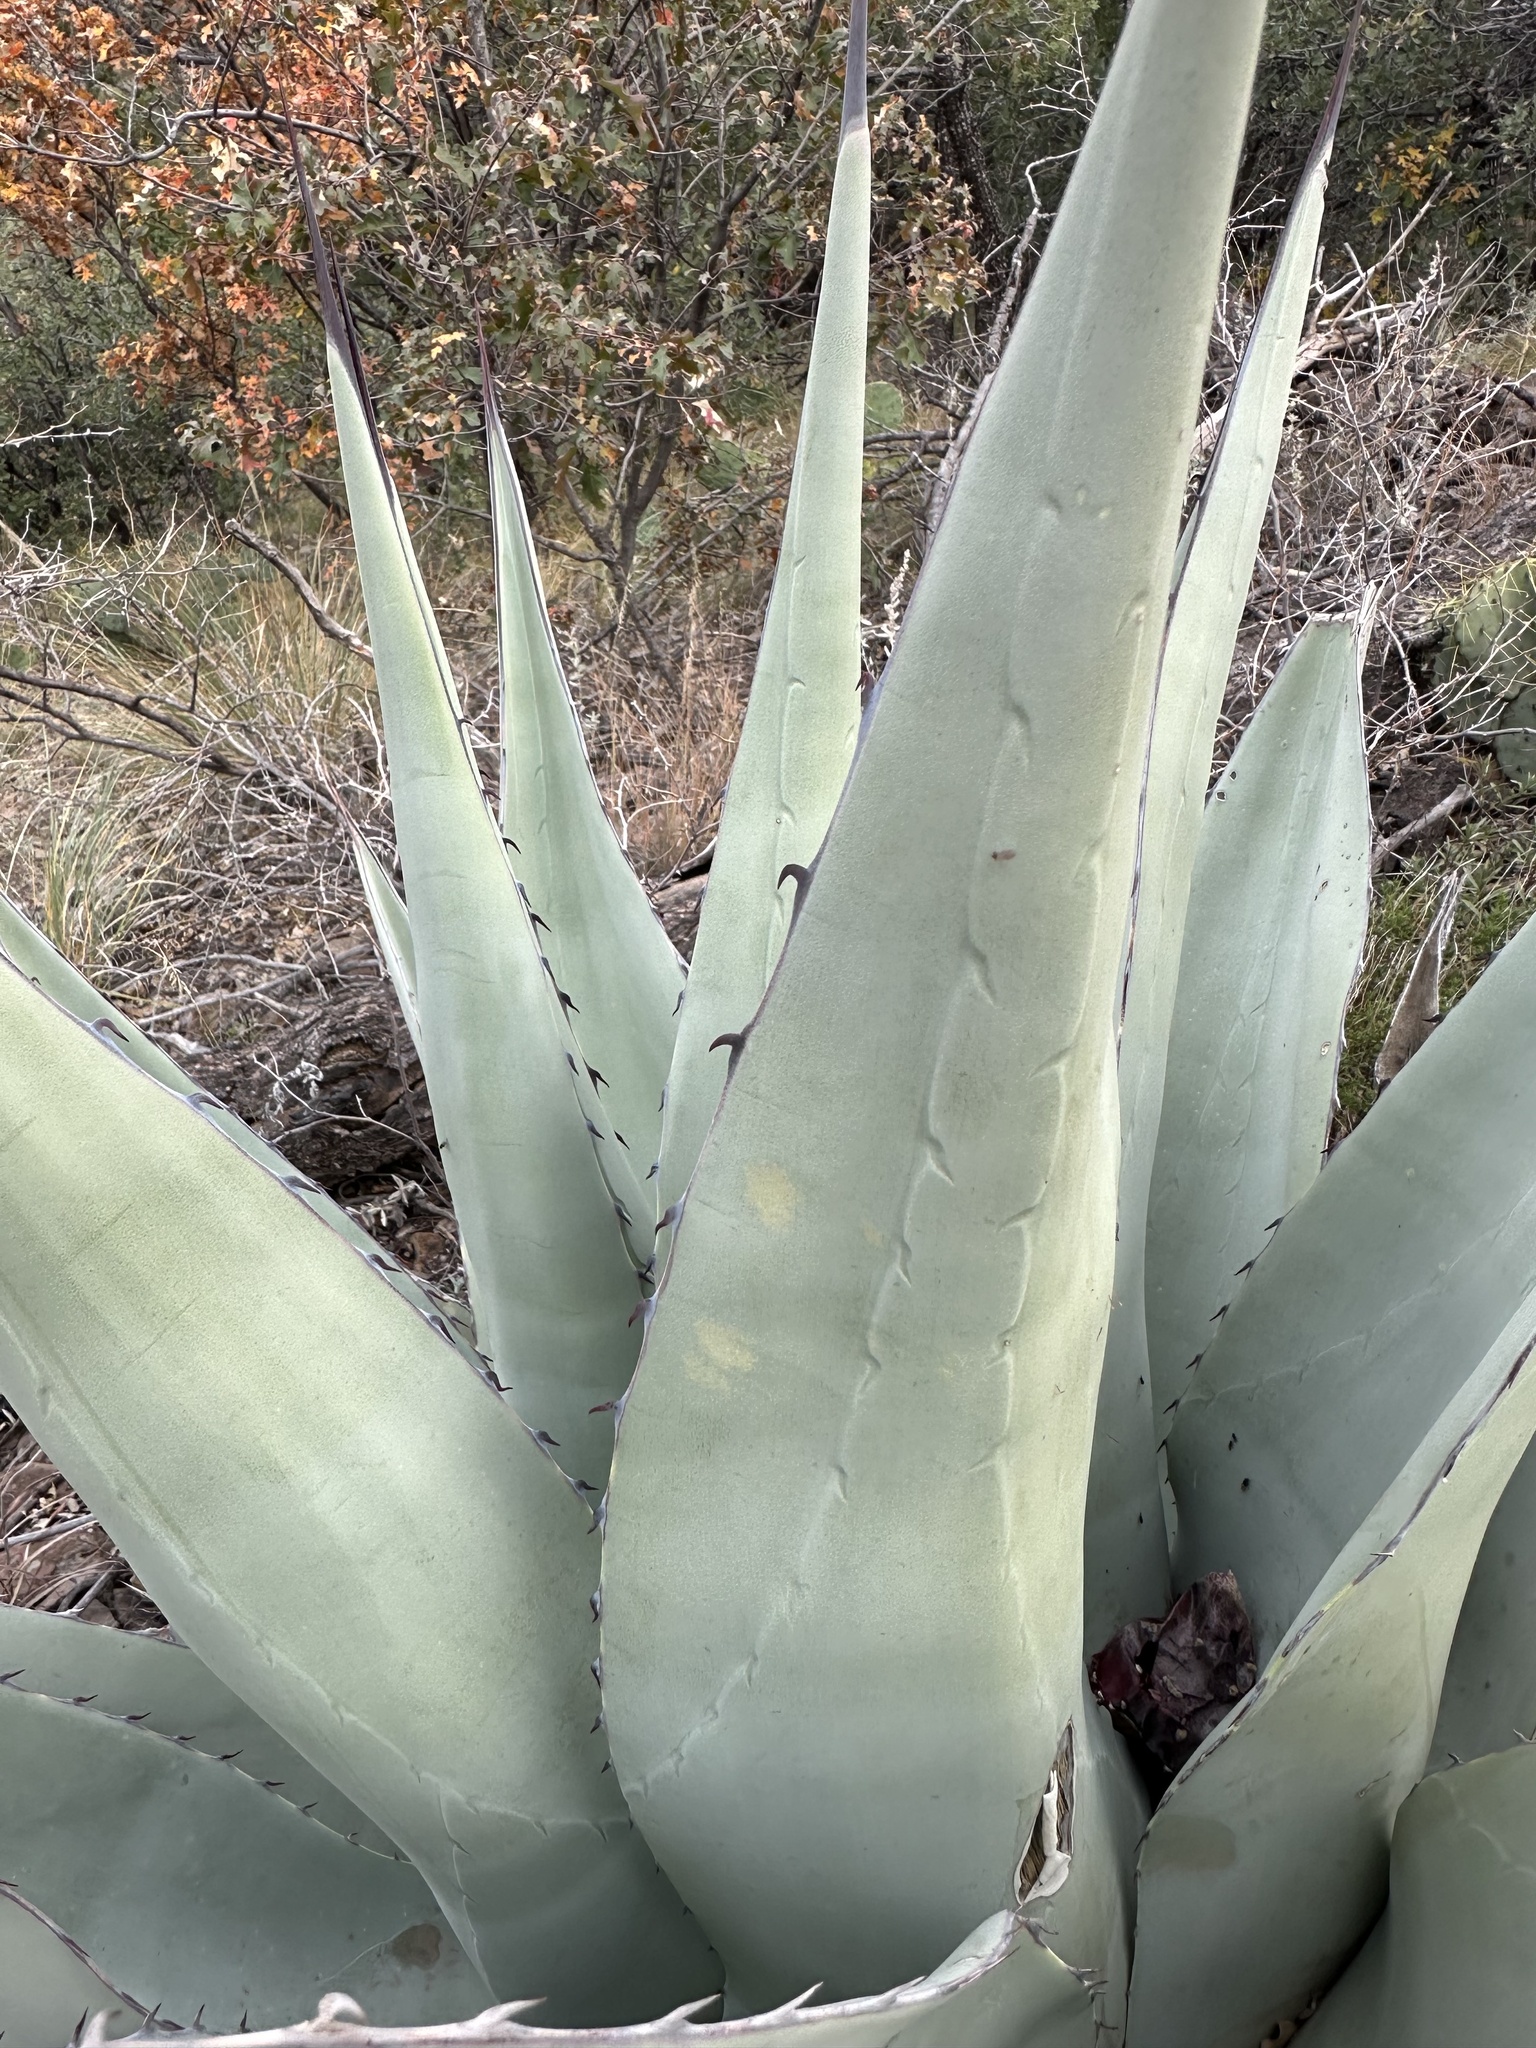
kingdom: Plantae
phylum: Tracheophyta
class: Liliopsida
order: Asparagales
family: Asparagaceae
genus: Agave
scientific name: Agave havardiana
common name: Havard agave
